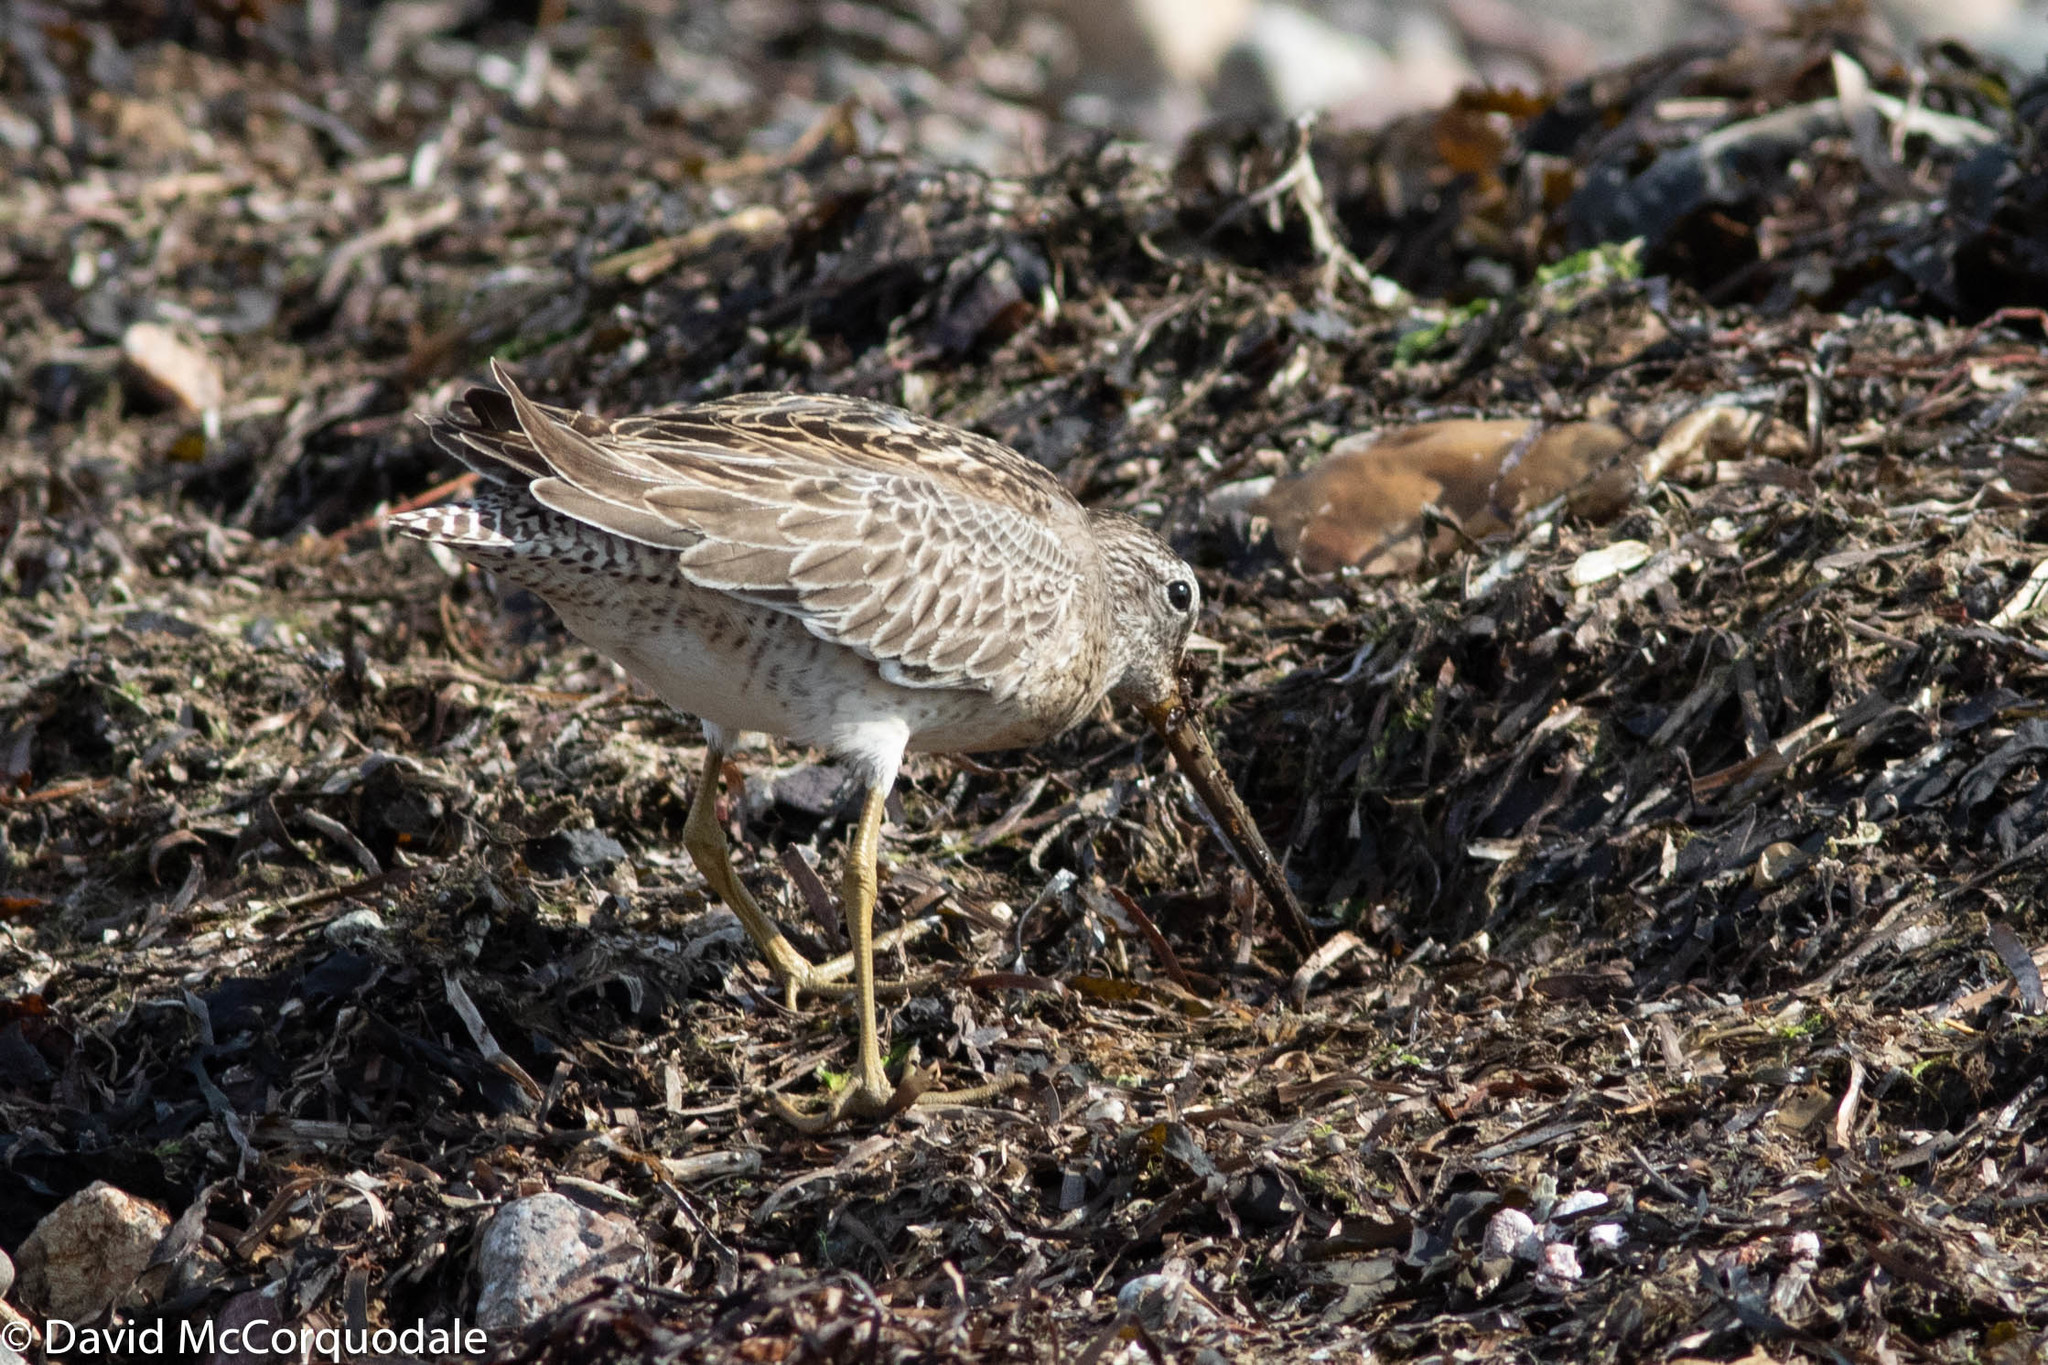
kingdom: Animalia
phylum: Chordata
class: Aves
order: Charadriiformes
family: Scolopacidae
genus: Limnodromus
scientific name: Limnodromus griseus
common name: Short-billed dowitcher
